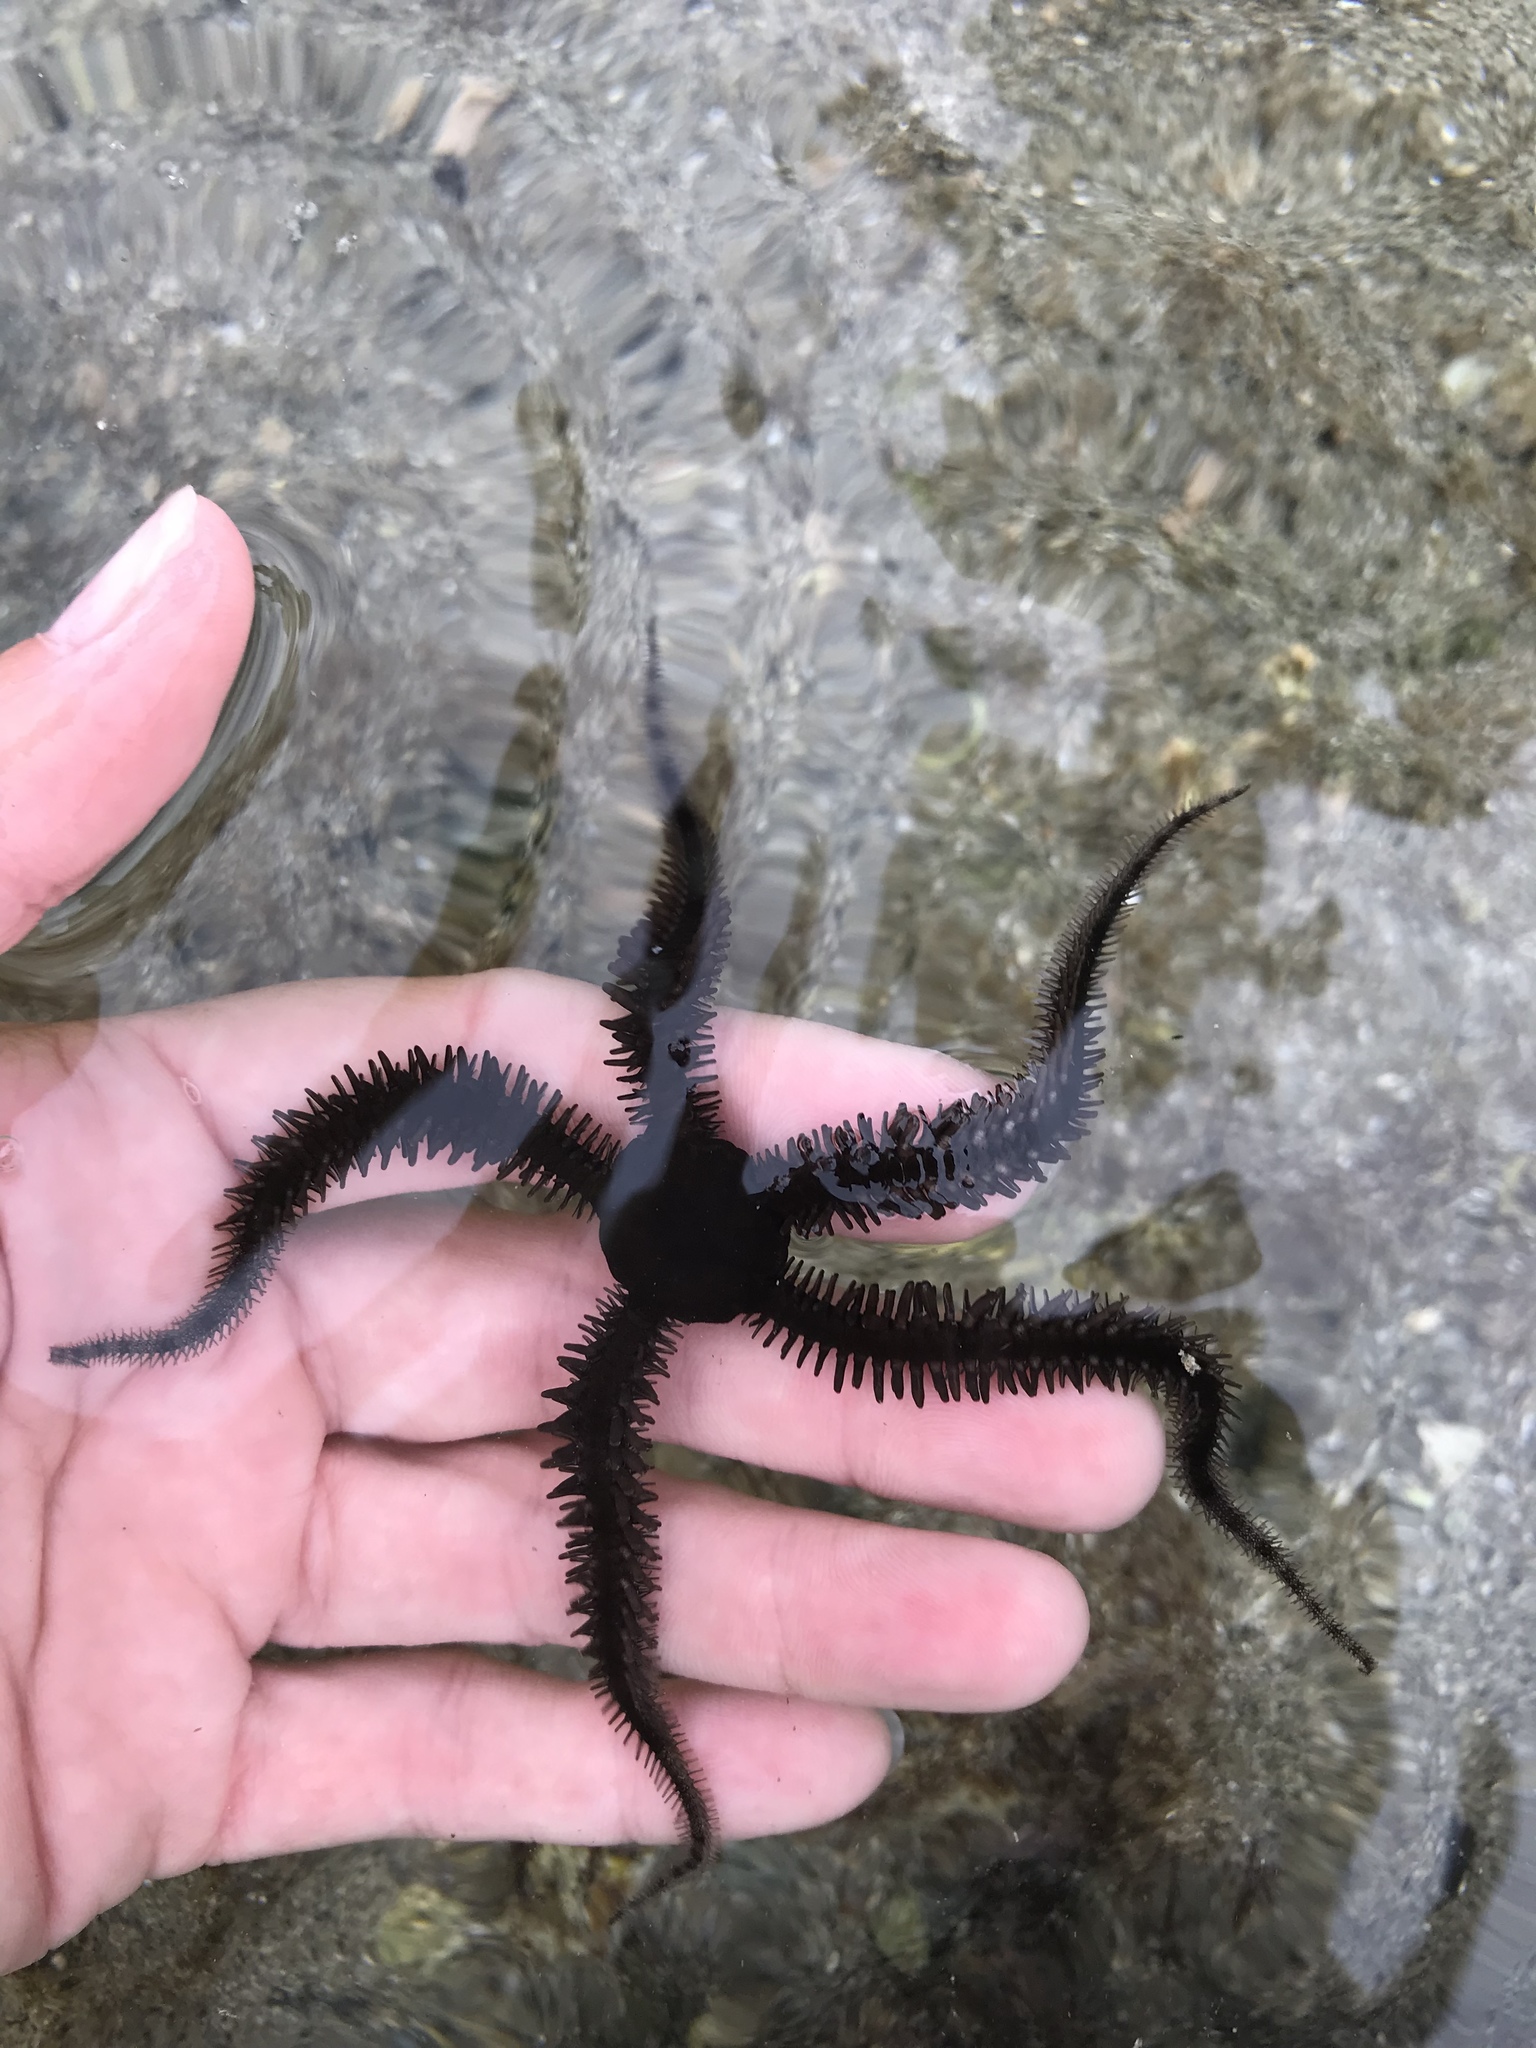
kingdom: Animalia
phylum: Echinodermata
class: Ophiuroidea
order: Ophiacanthida
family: Ophiocomidae
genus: Ophiocoma
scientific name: Ophiocoma aethiops
